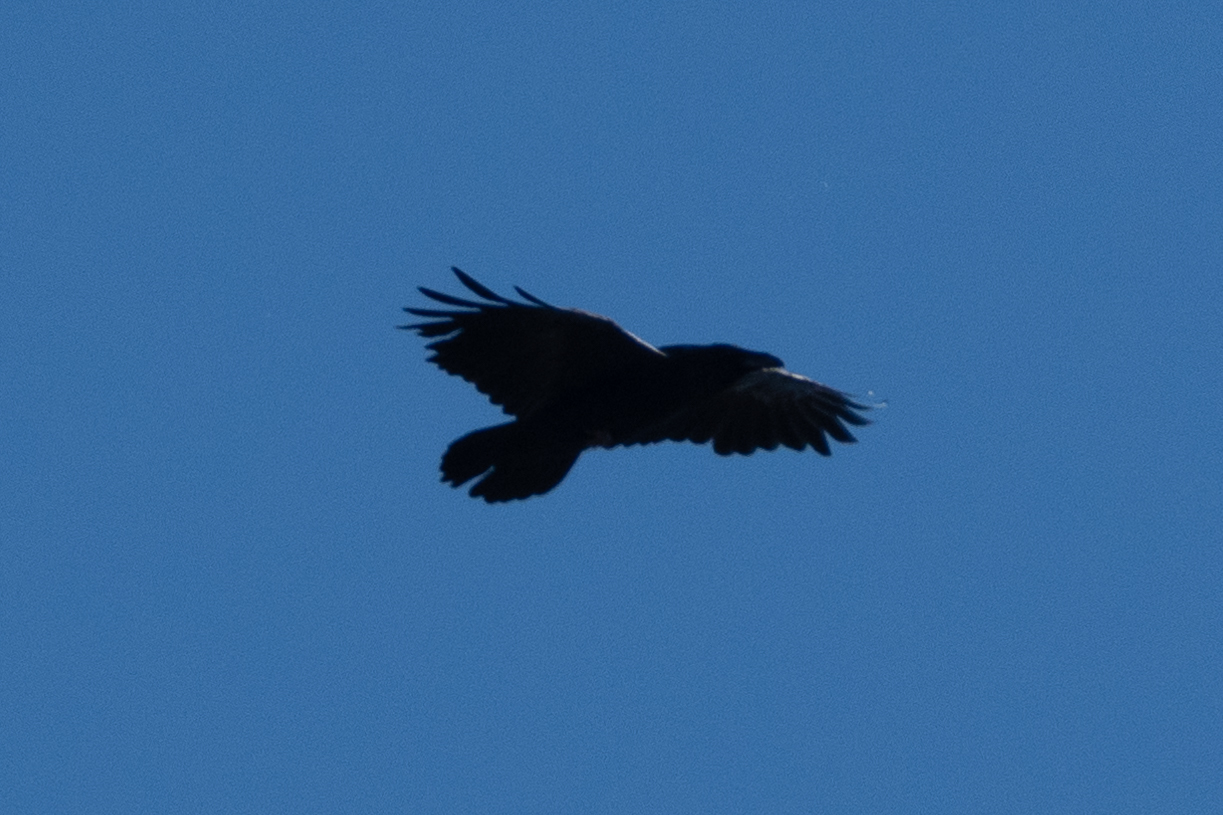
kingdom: Animalia
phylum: Chordata
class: Aves
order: Passeriformes
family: Corvidae
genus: Corvus
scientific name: Corvus corax
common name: Common raven
